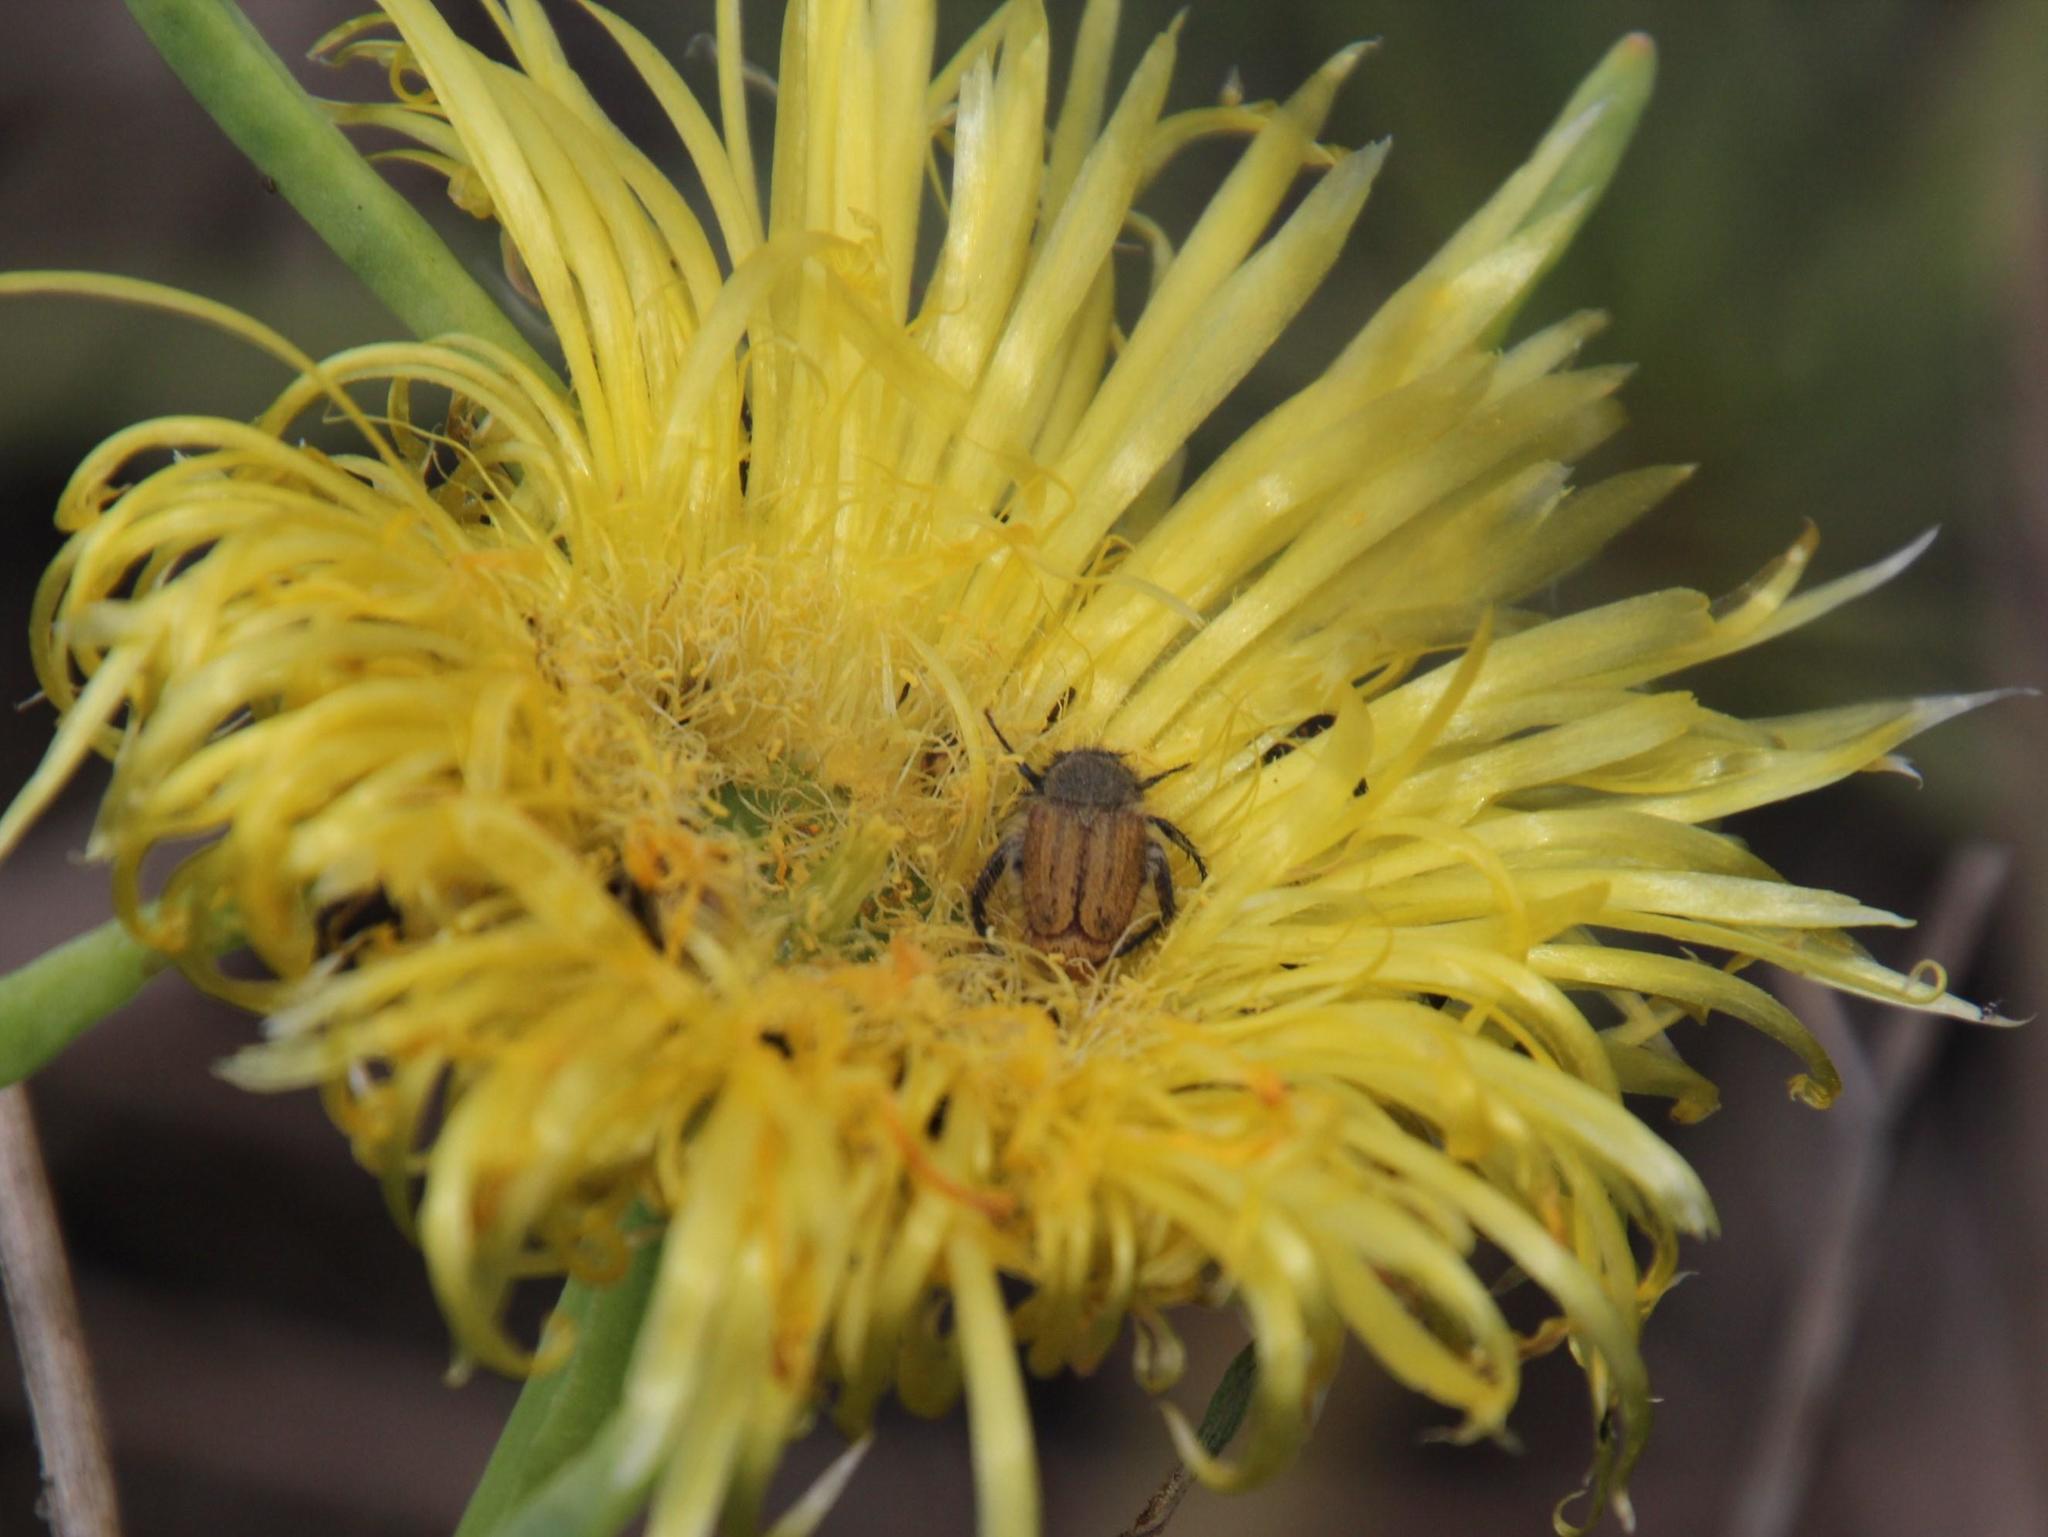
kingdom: Plantae
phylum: Tracheophyta
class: Magnoliopsida
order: Caryophyllales
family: Aizoaceae
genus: Conicosia
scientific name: Conicosia pugioniformis
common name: Narrow-leaved iceplant
